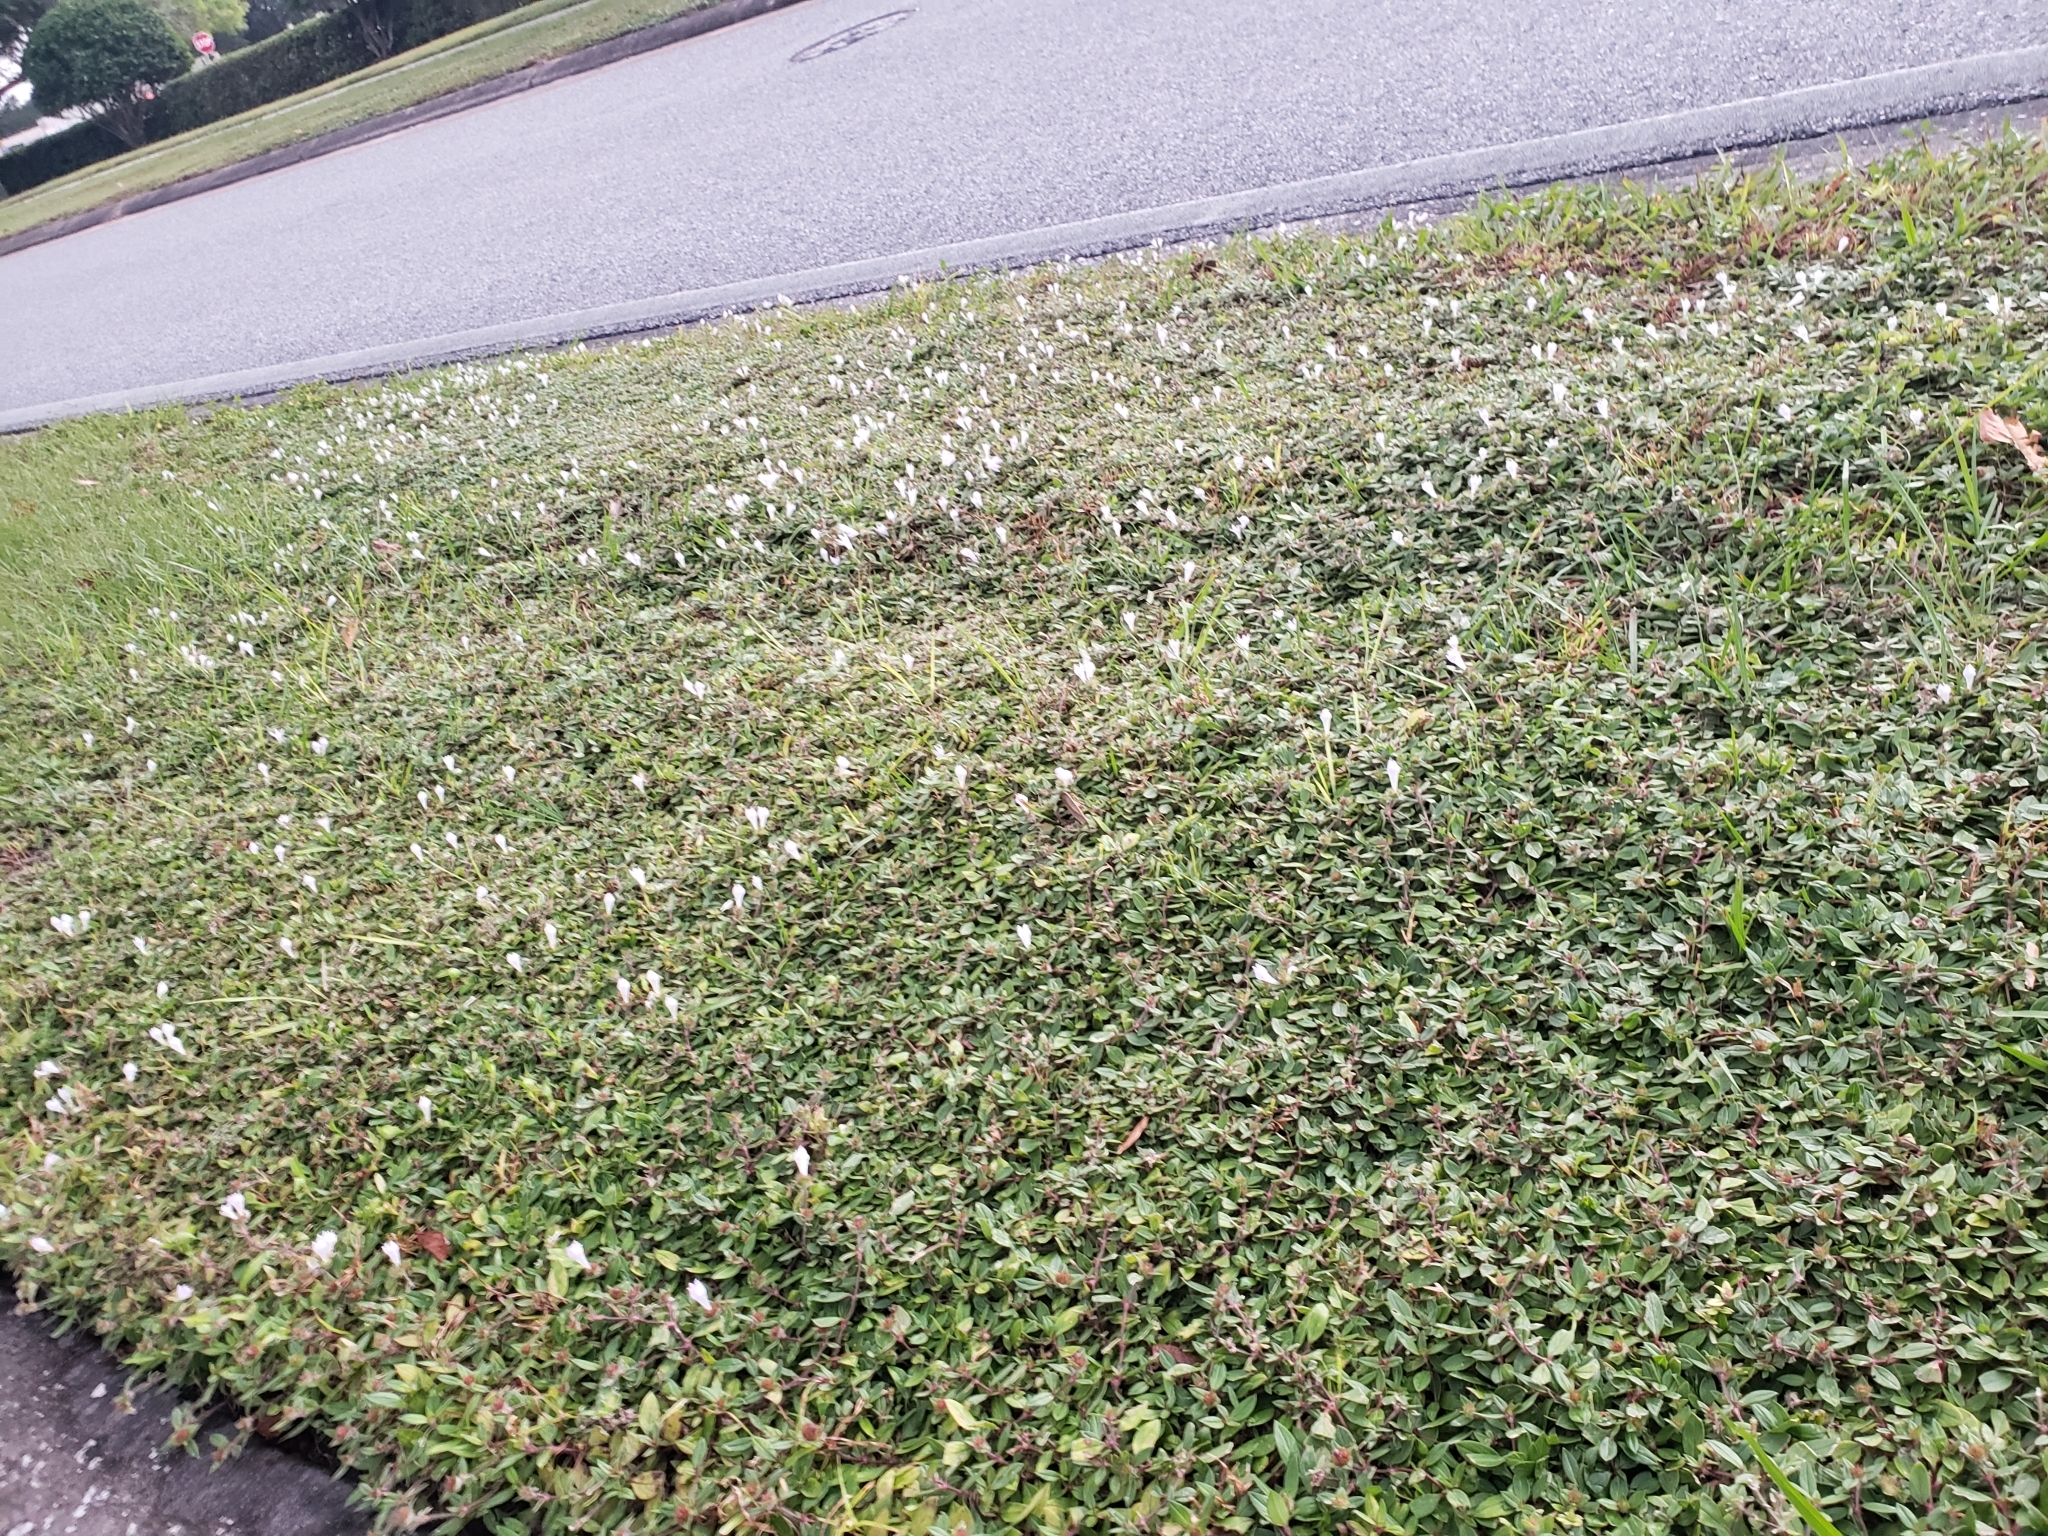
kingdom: Plantae
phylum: Tracheophyta
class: Magnoliopsida
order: Gentianales
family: Rubiaceae
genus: Richardia
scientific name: Richardia grandiflora
